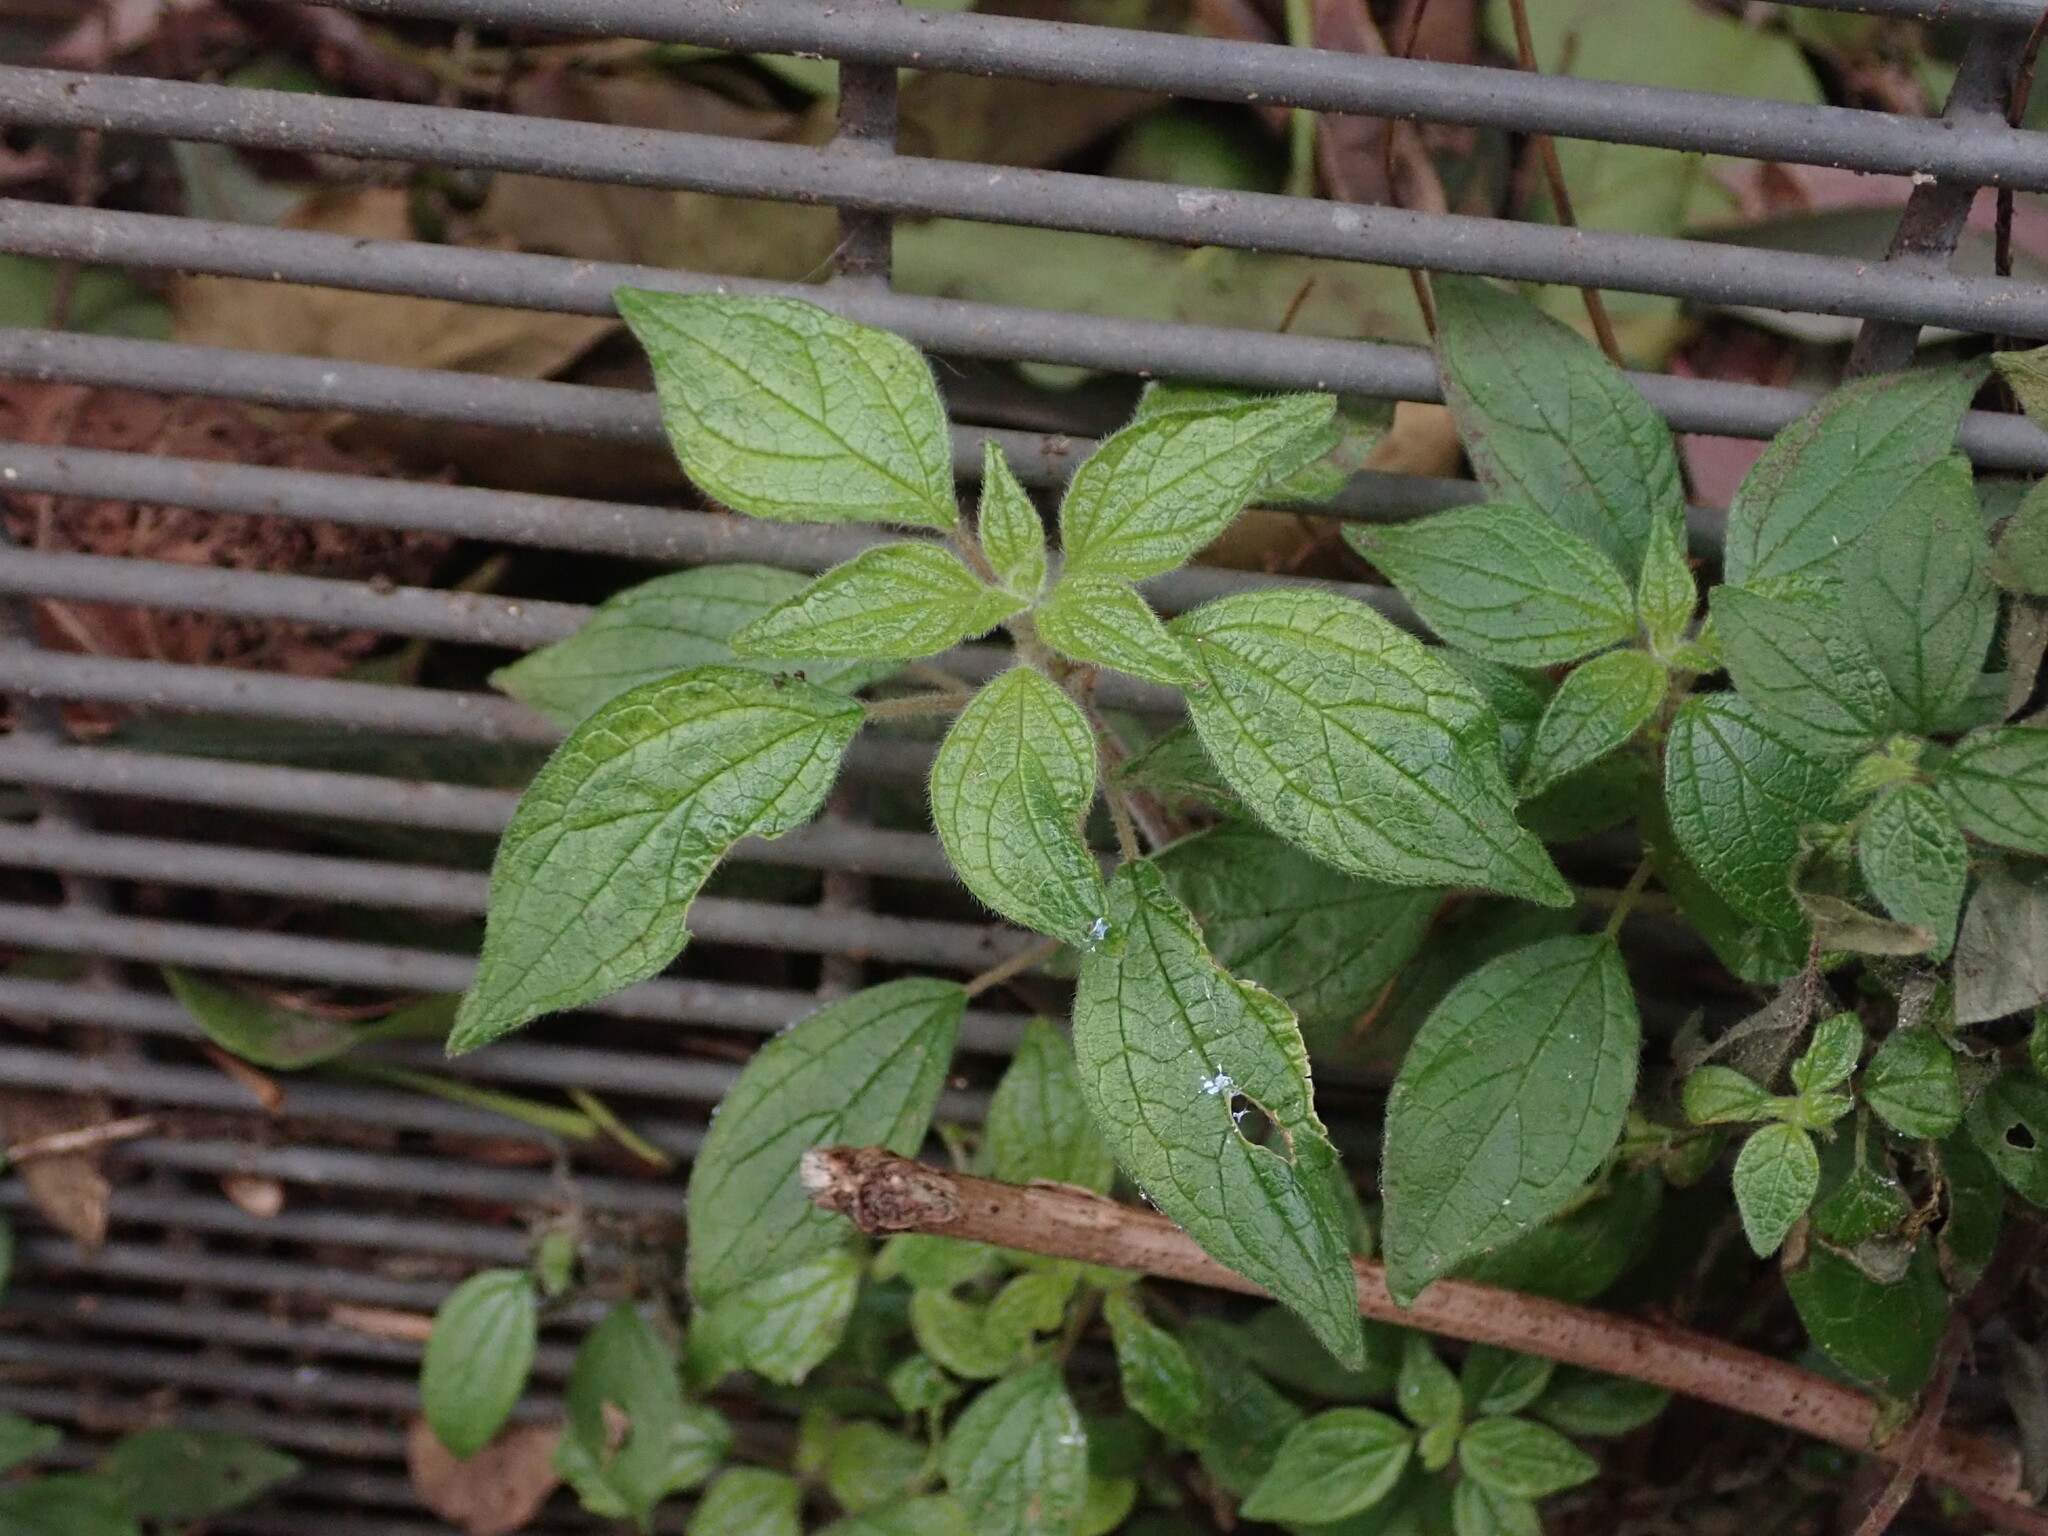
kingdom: Plantae
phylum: Tracheophyta
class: Magnoliopsida
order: Rosales
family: Urticaceae
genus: Parietaria
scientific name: Parietaria judaica
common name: Pellitory-of-the-wall
